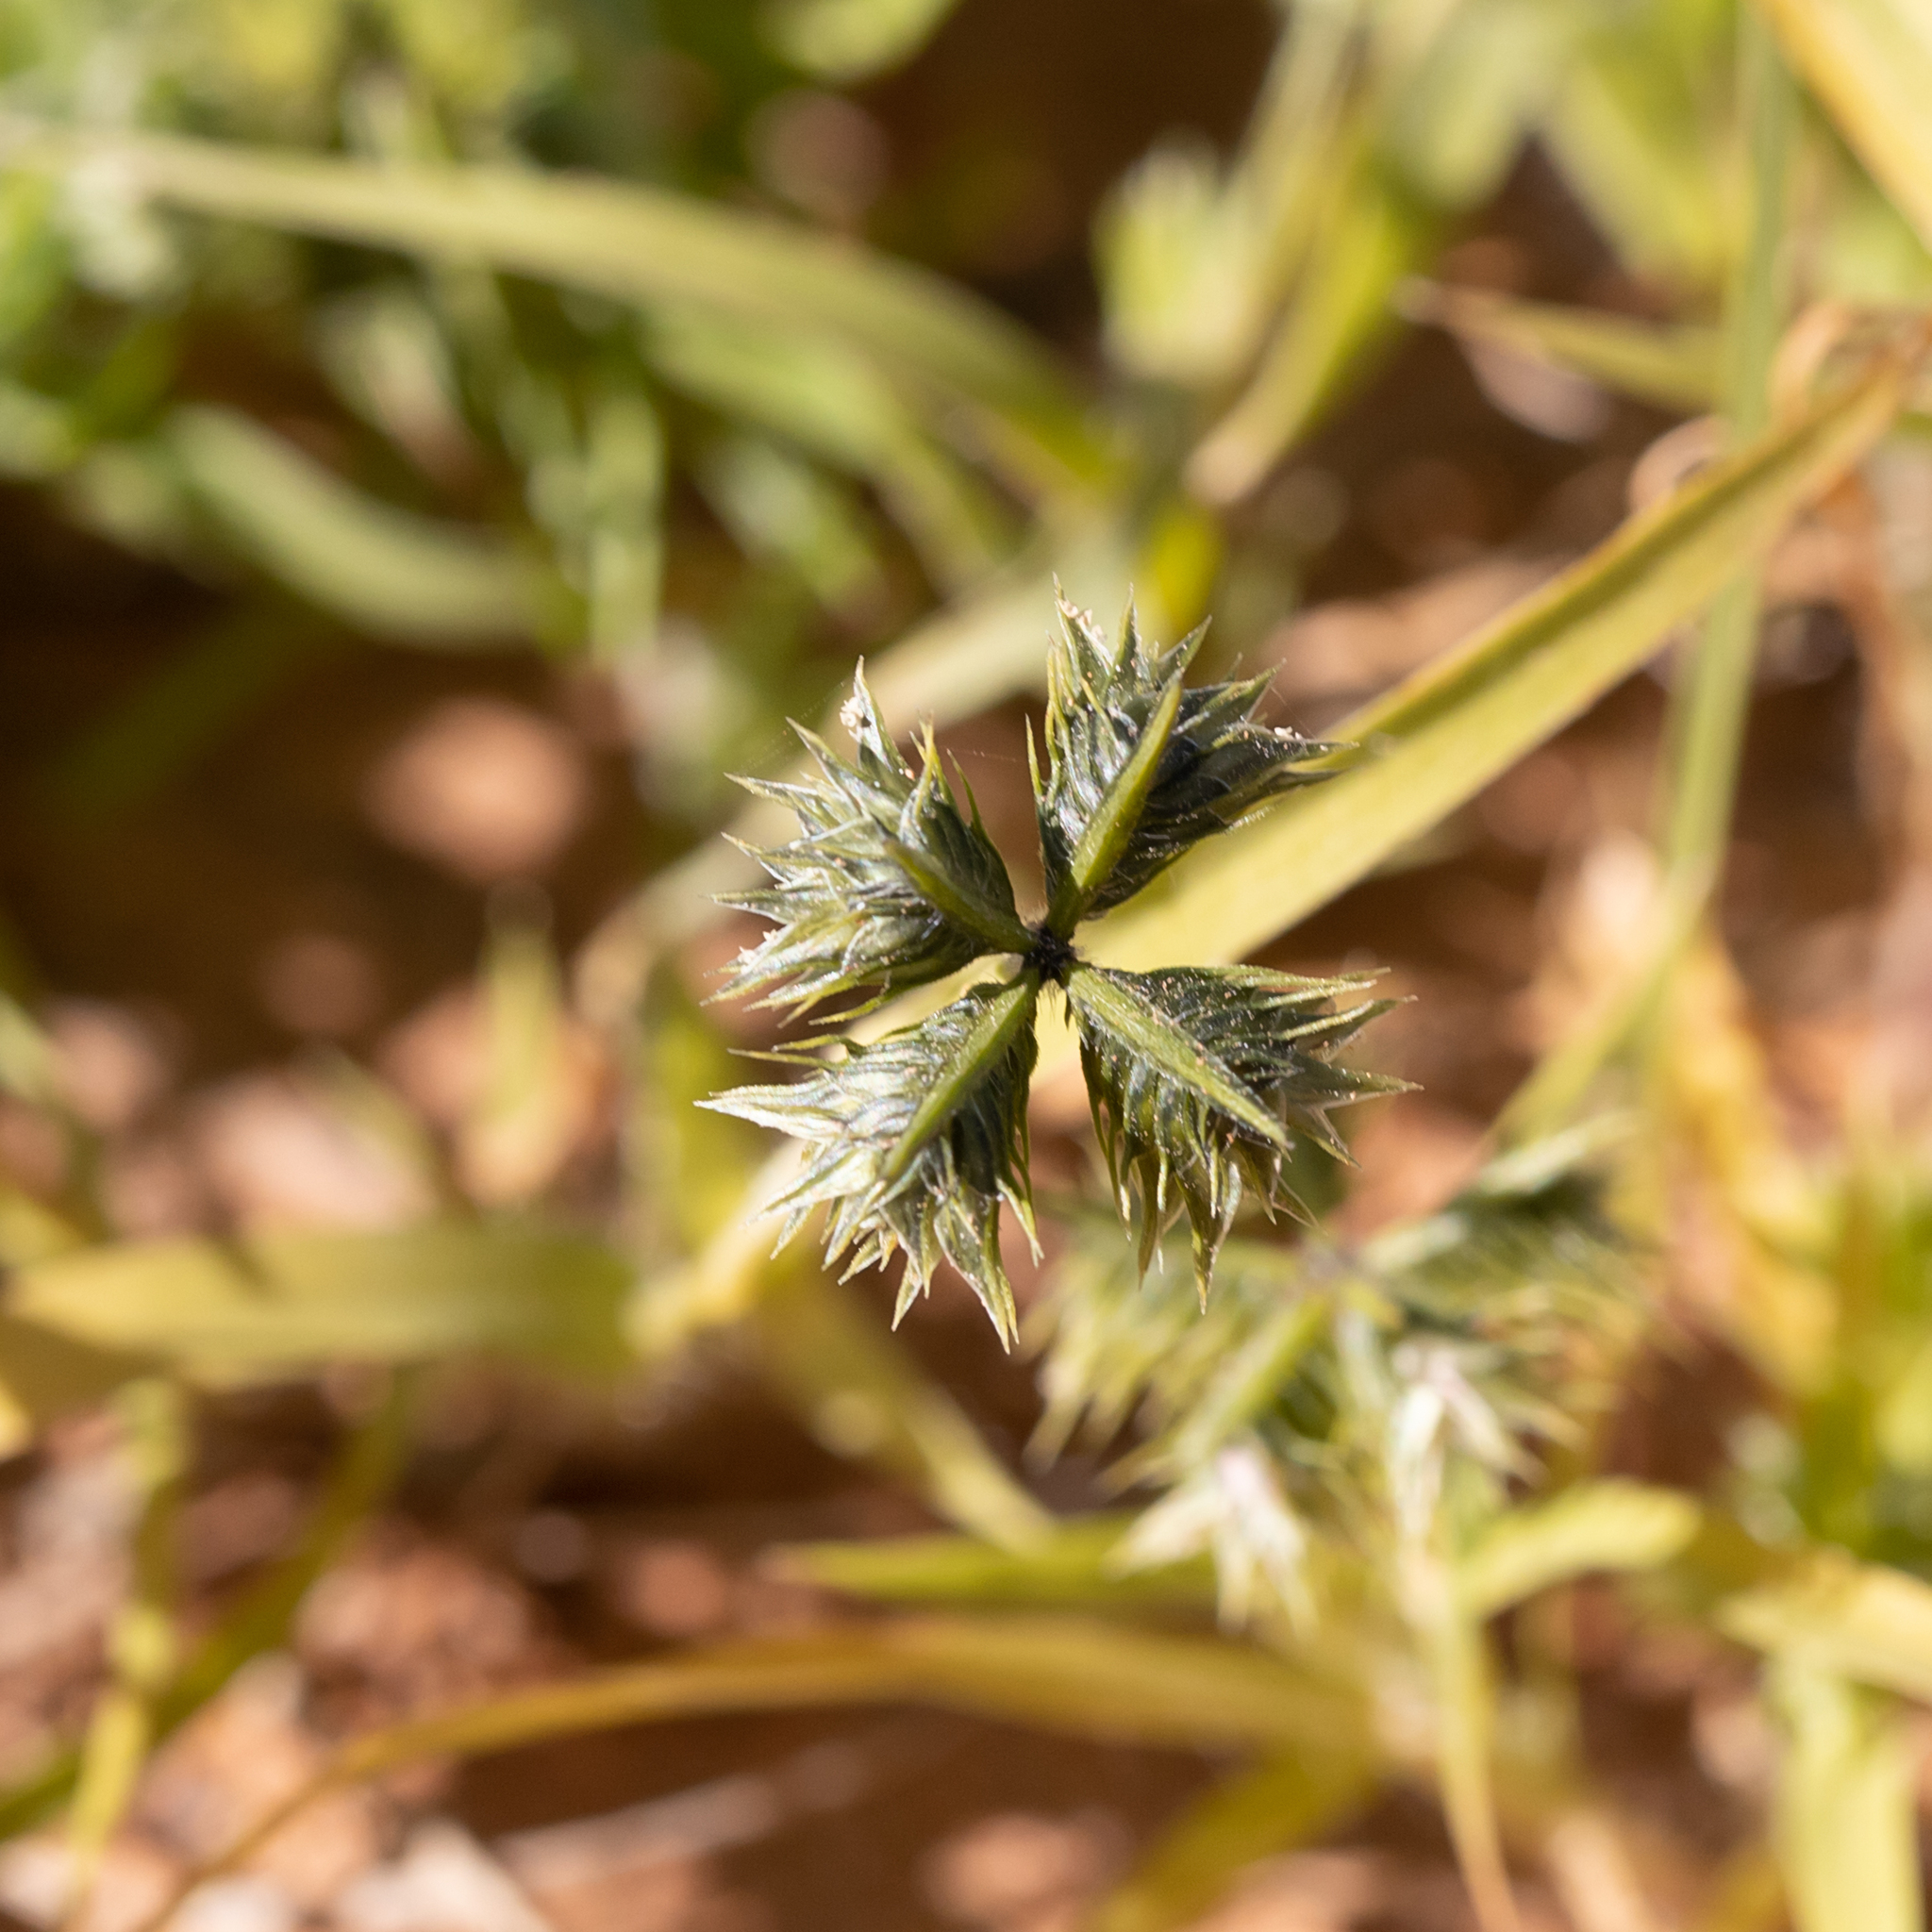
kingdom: Plantae
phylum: Tracheophyta
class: Liliopsida
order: Poales
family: Poaceae
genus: Dactyloctenium
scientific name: Dactyloctenium radulans
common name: Button-grass
